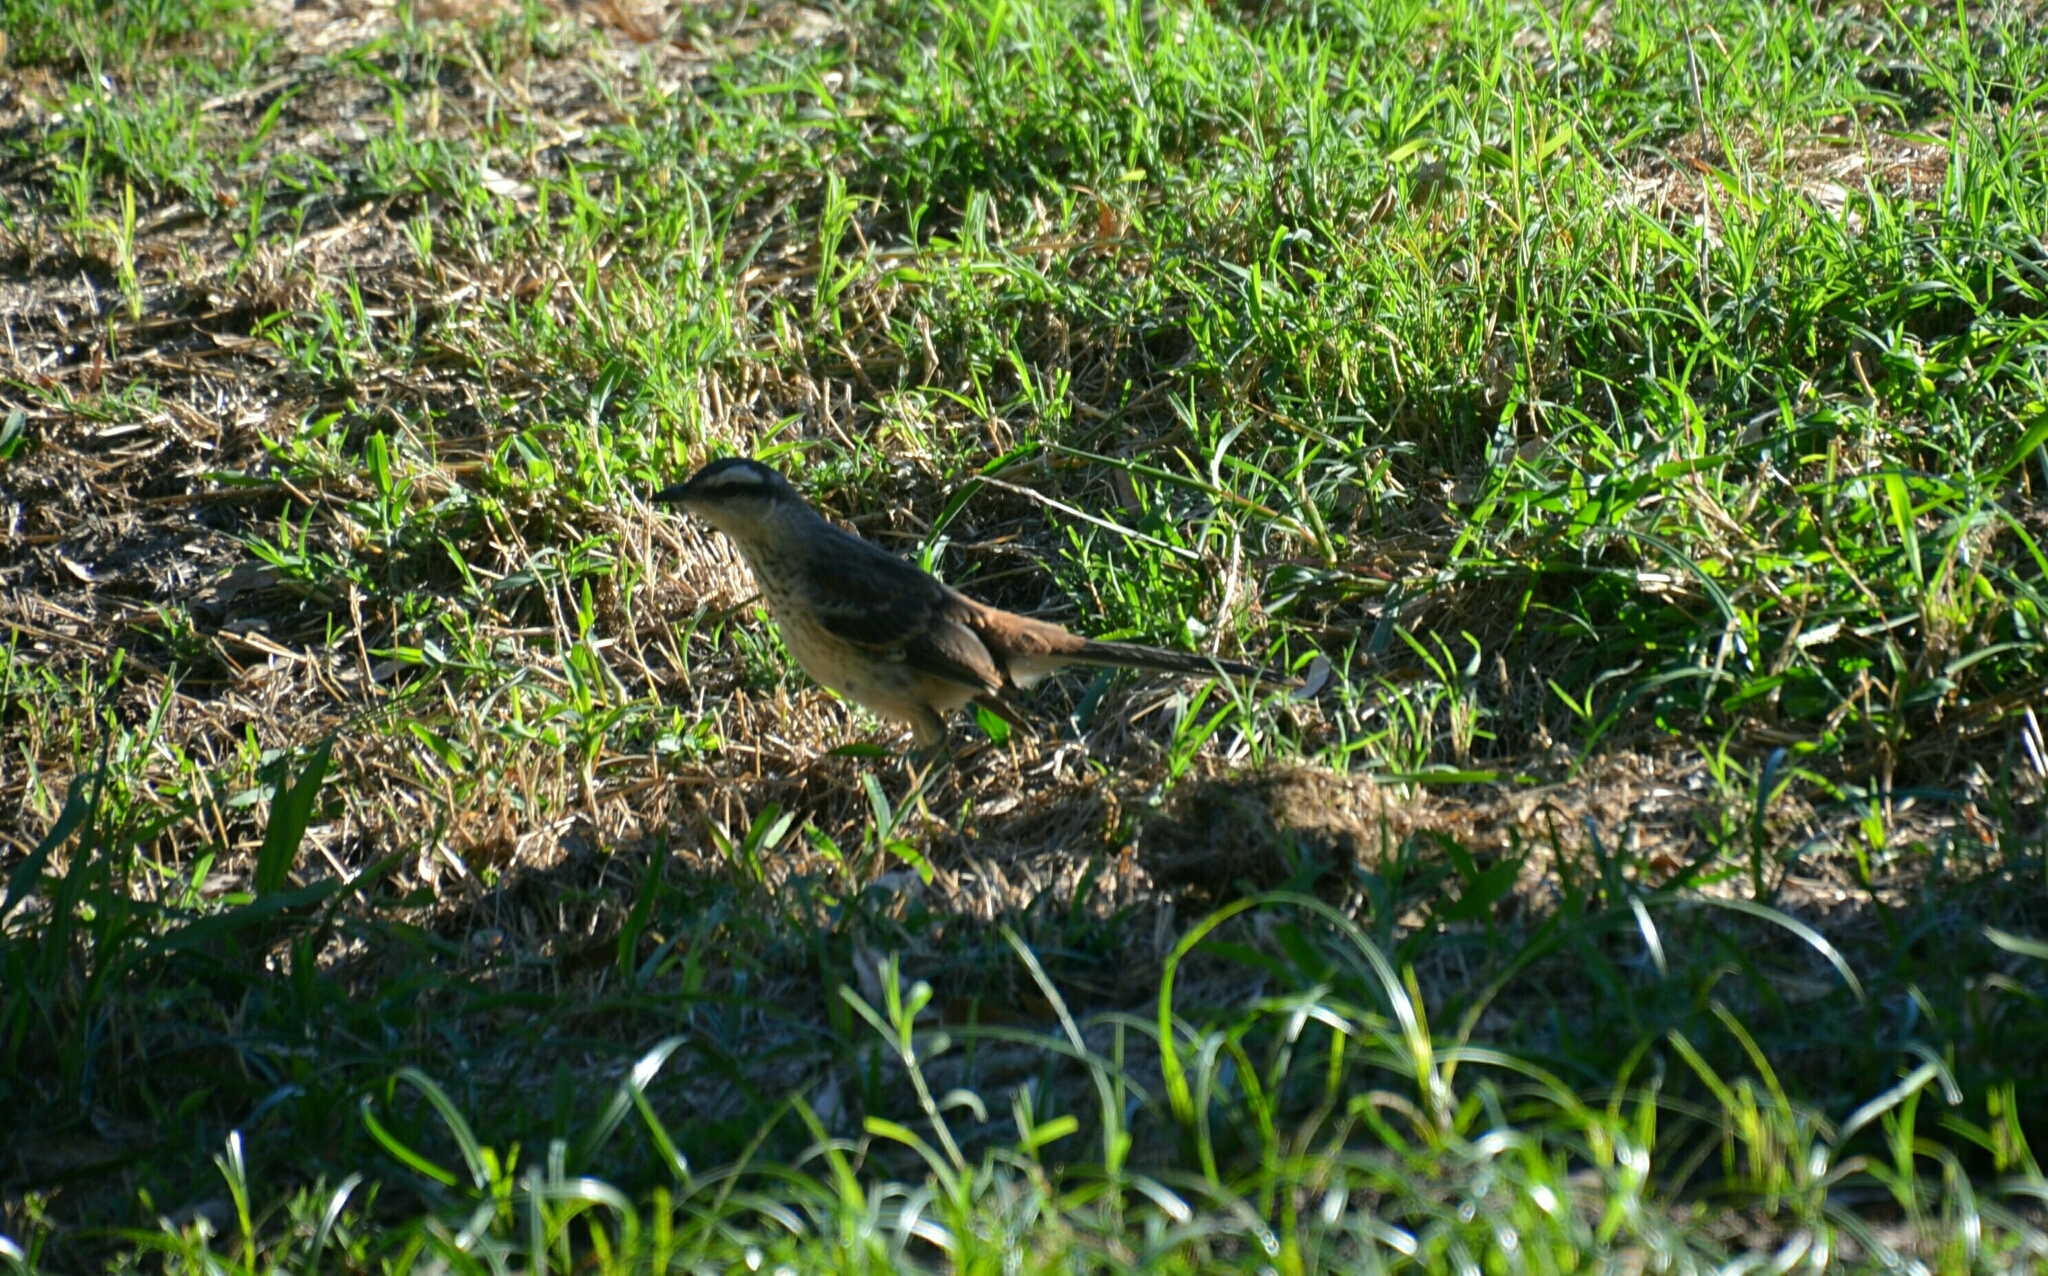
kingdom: Animalia
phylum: Chordata
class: Aves
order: Passeriformes
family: Mimidae
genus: Mimus
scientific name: Mimus saturninus
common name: Chalk-browed mockingbird
